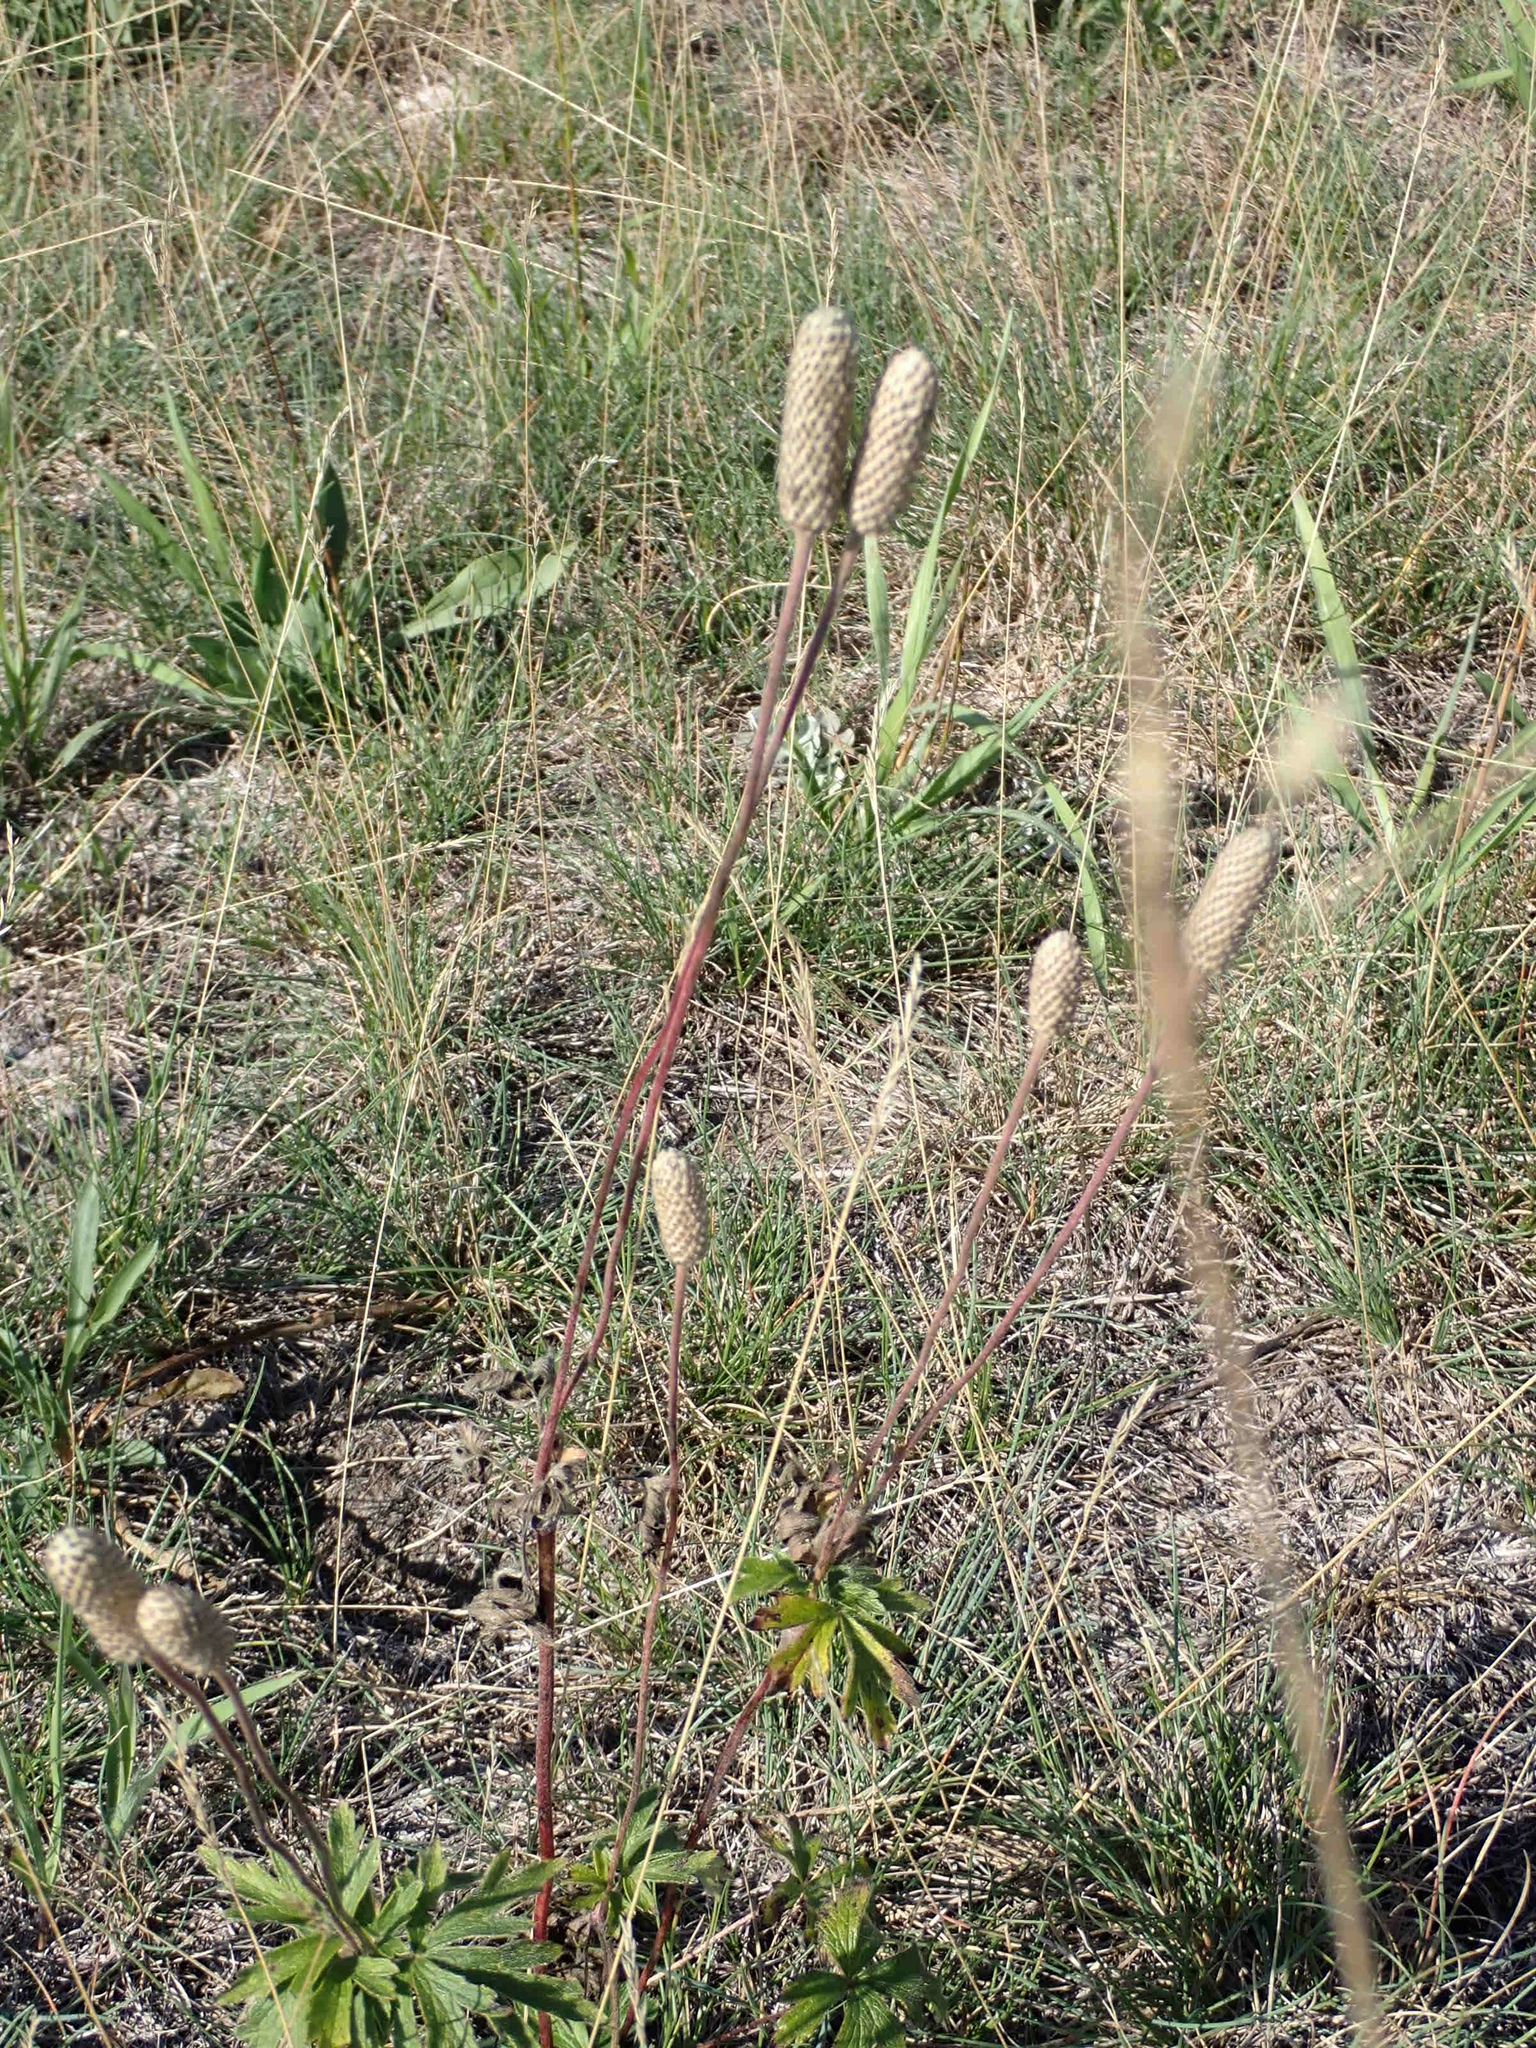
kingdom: Plantae
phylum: Tracheophyta
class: Magnoliopsida
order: Ranunculales
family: Ranunculaceae
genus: Anemone
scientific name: Anemone cylindrica
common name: Candle anemone
